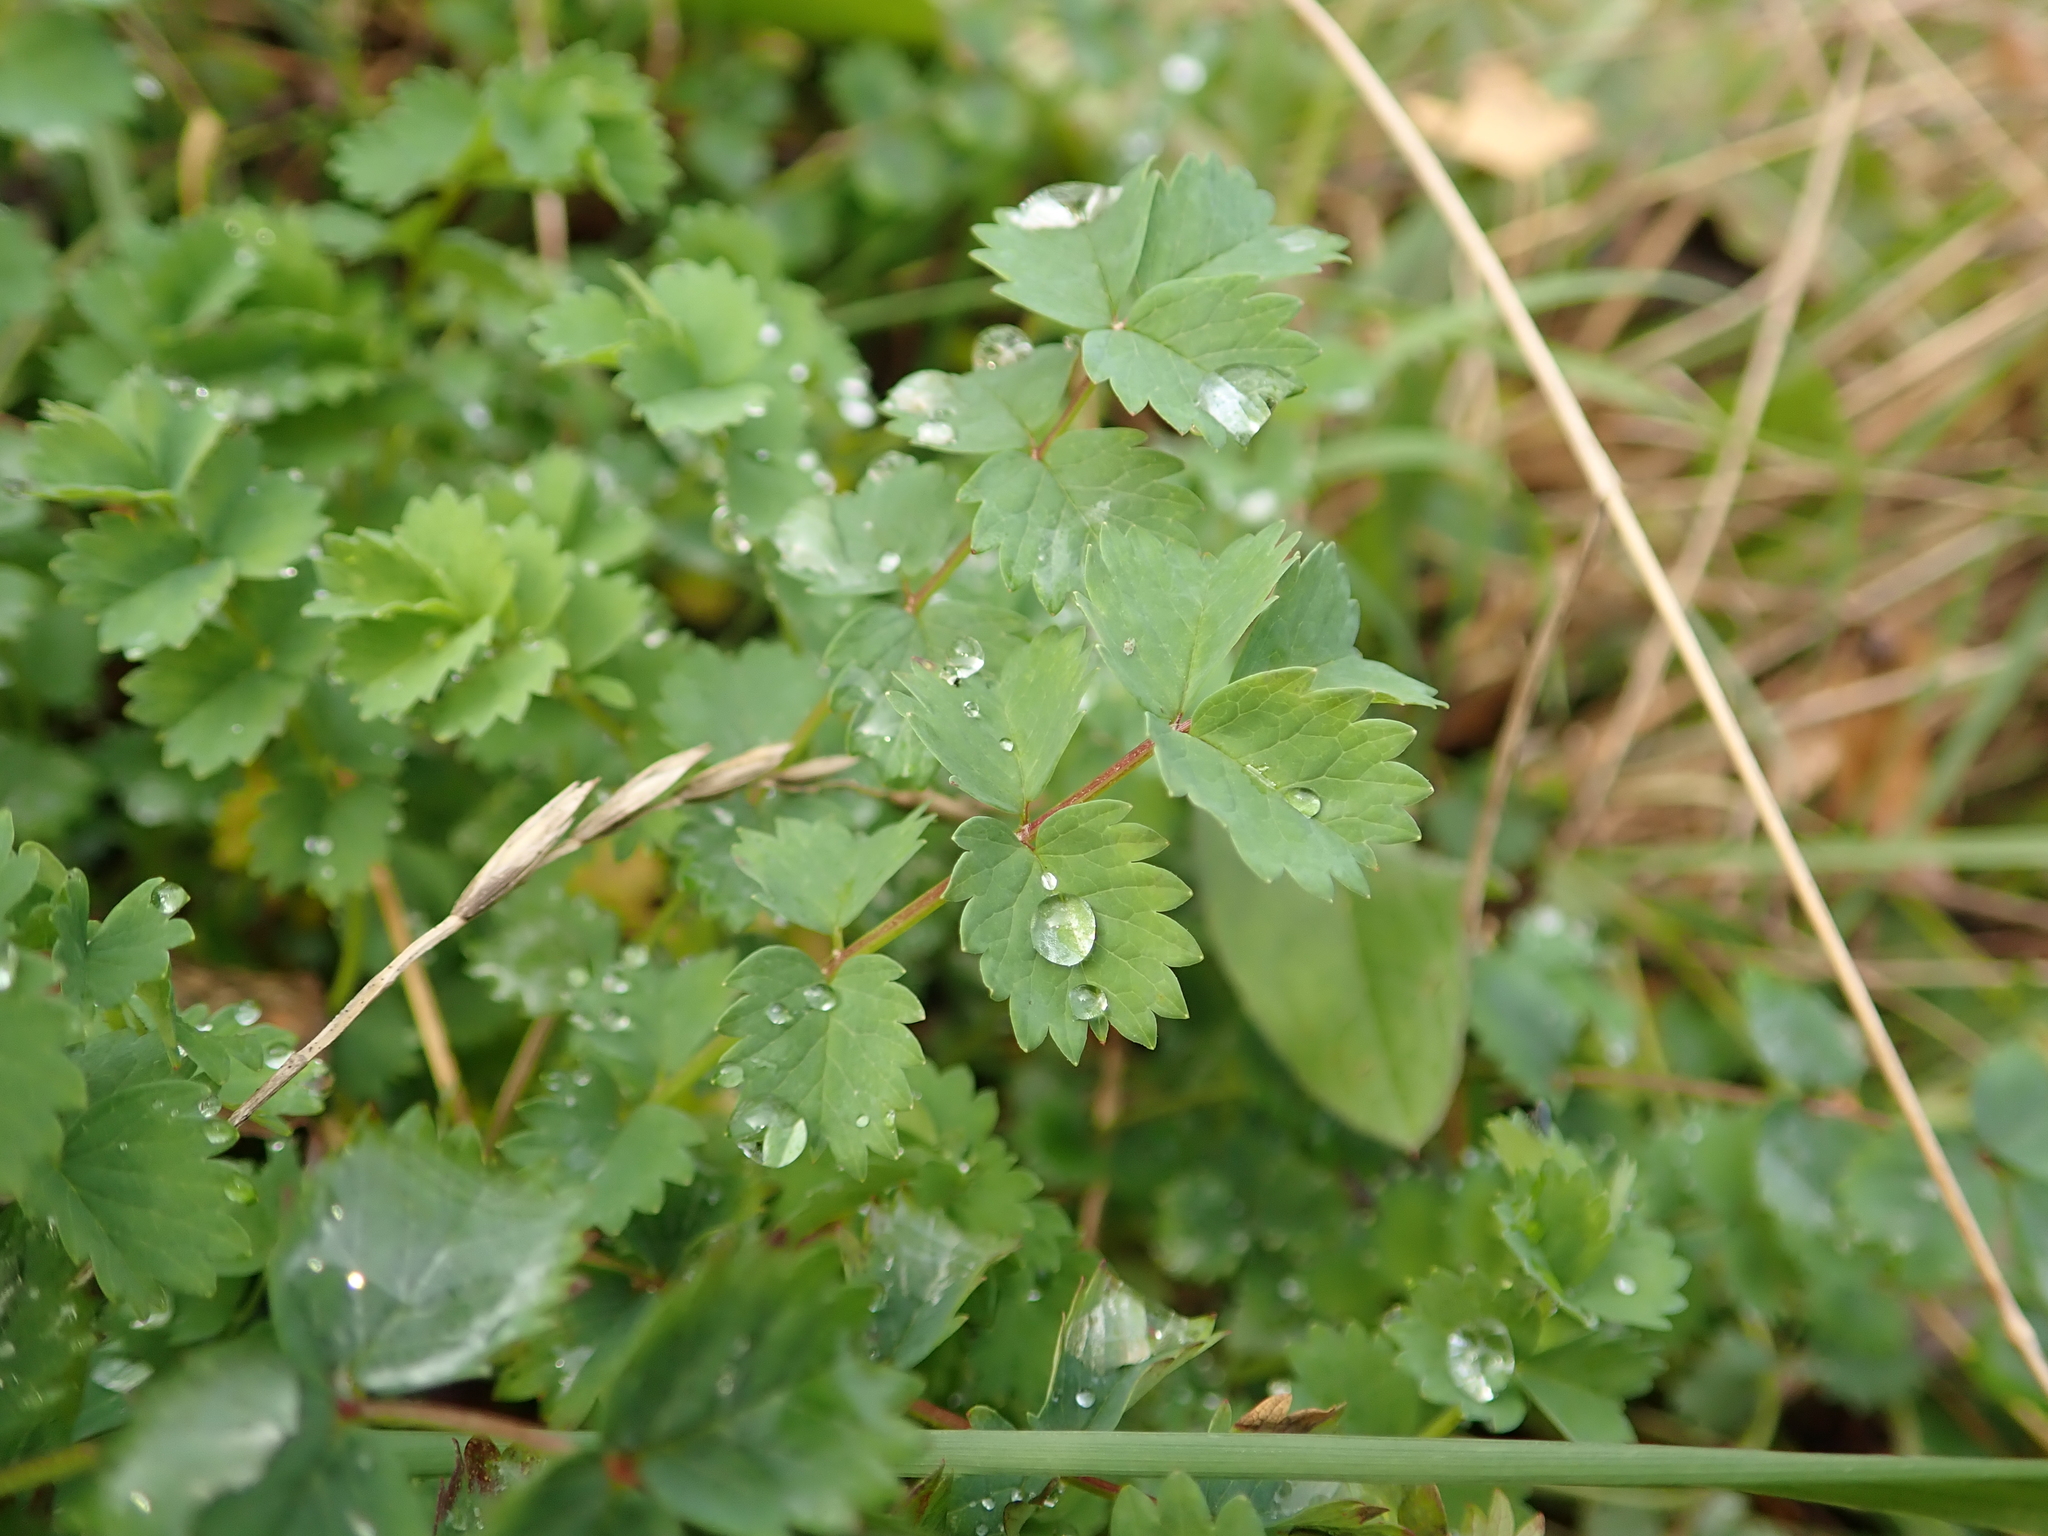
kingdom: Plantae
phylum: Tracheophyta
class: Magnoliopsida
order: Rosales
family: Rosaceae
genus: Poterium
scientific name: Poterium sanguisorba
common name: Salad burnet
